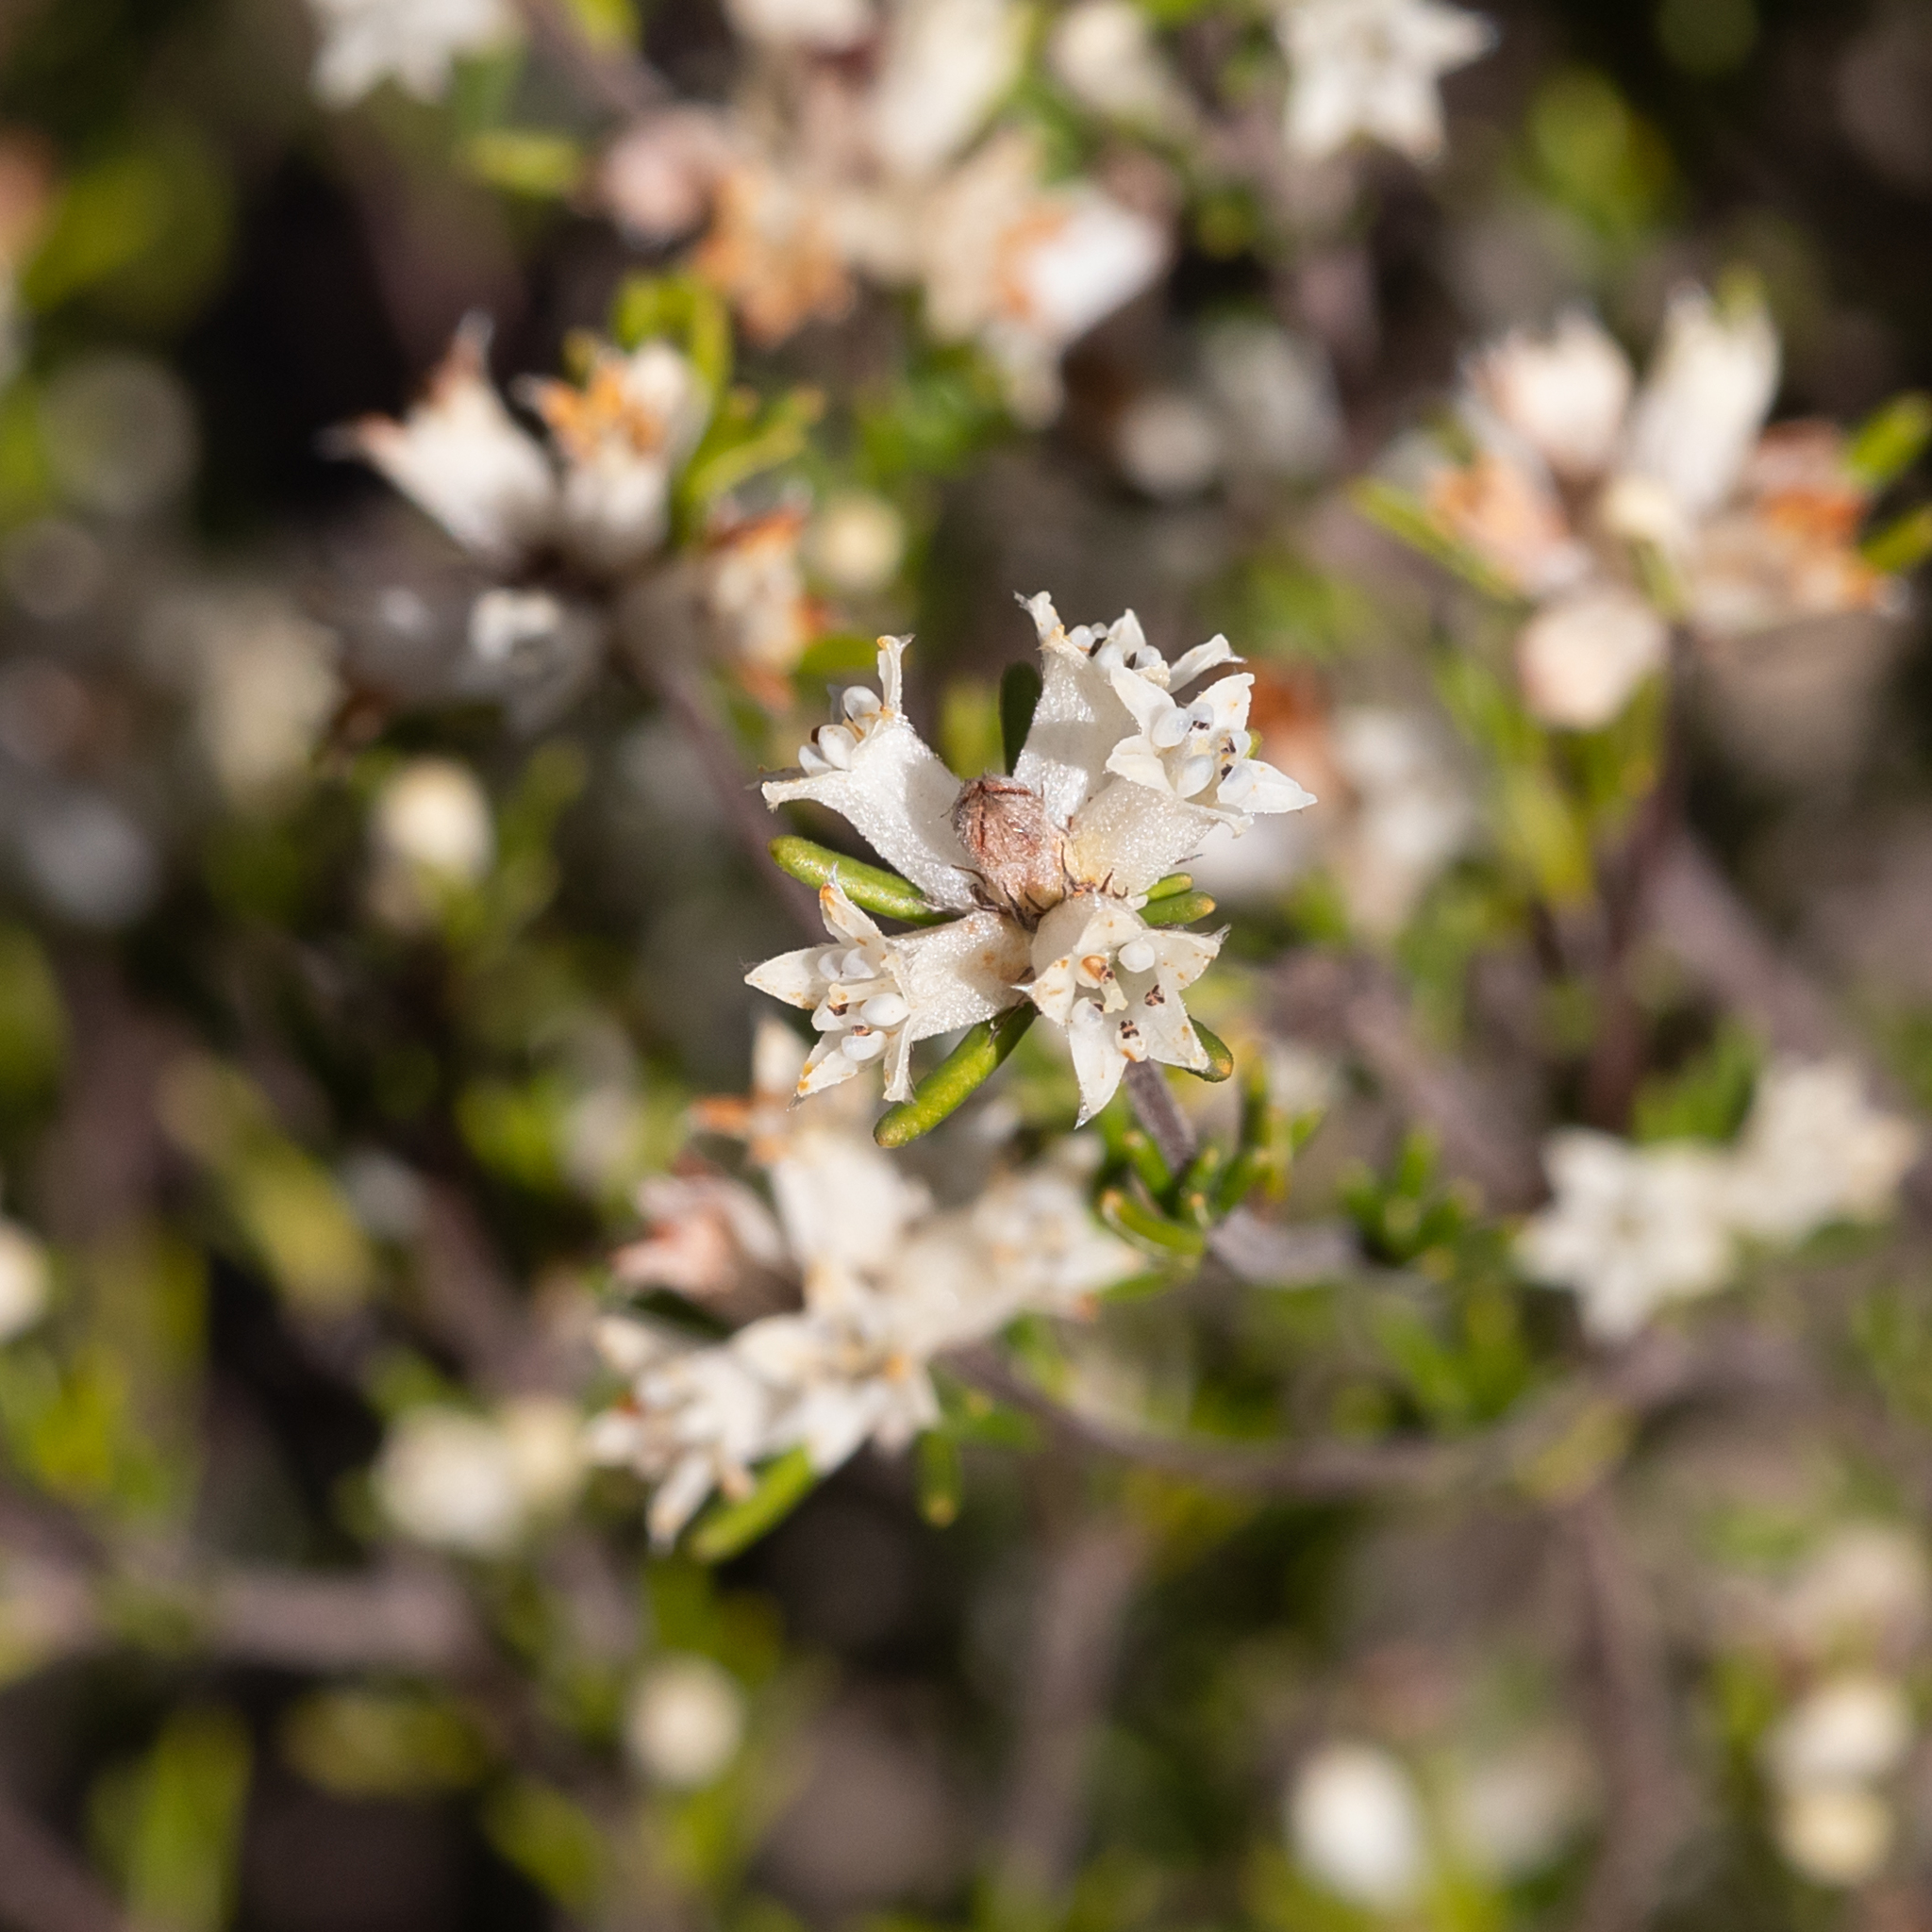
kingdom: Plantae
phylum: Tracheophyta
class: Magnoliopsida
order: Rosales
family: Rhamnaceae
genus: Cryptandra
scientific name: Cryptandra hispidula
